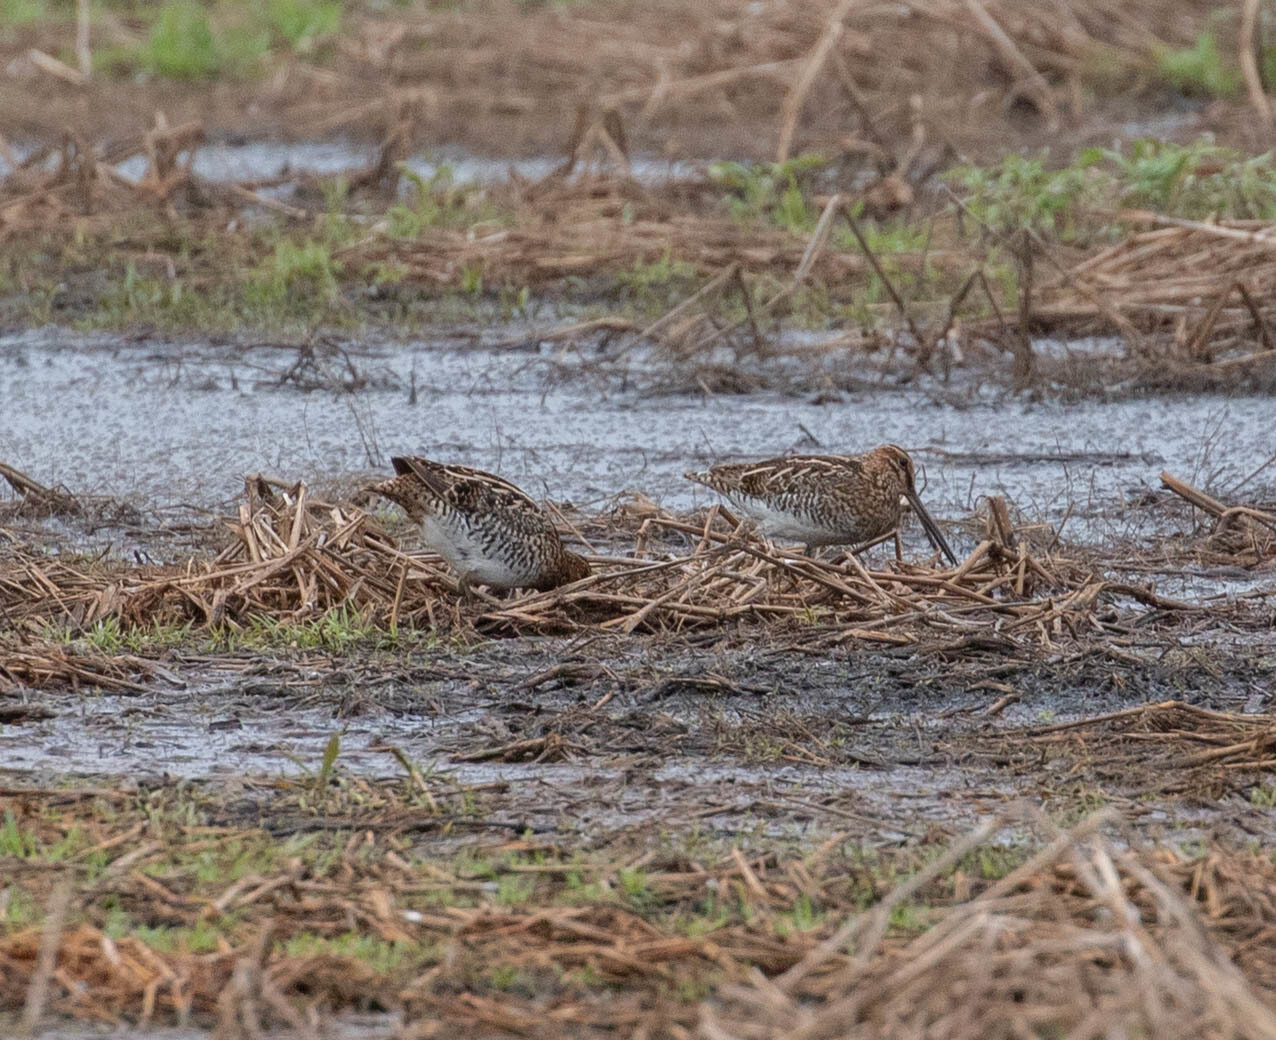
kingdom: Animalia
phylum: Chordata
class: Aves
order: Charadriiformes
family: Scolopacidae
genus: Gallinago
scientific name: Gallinago delicata
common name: Wilson's snipe
